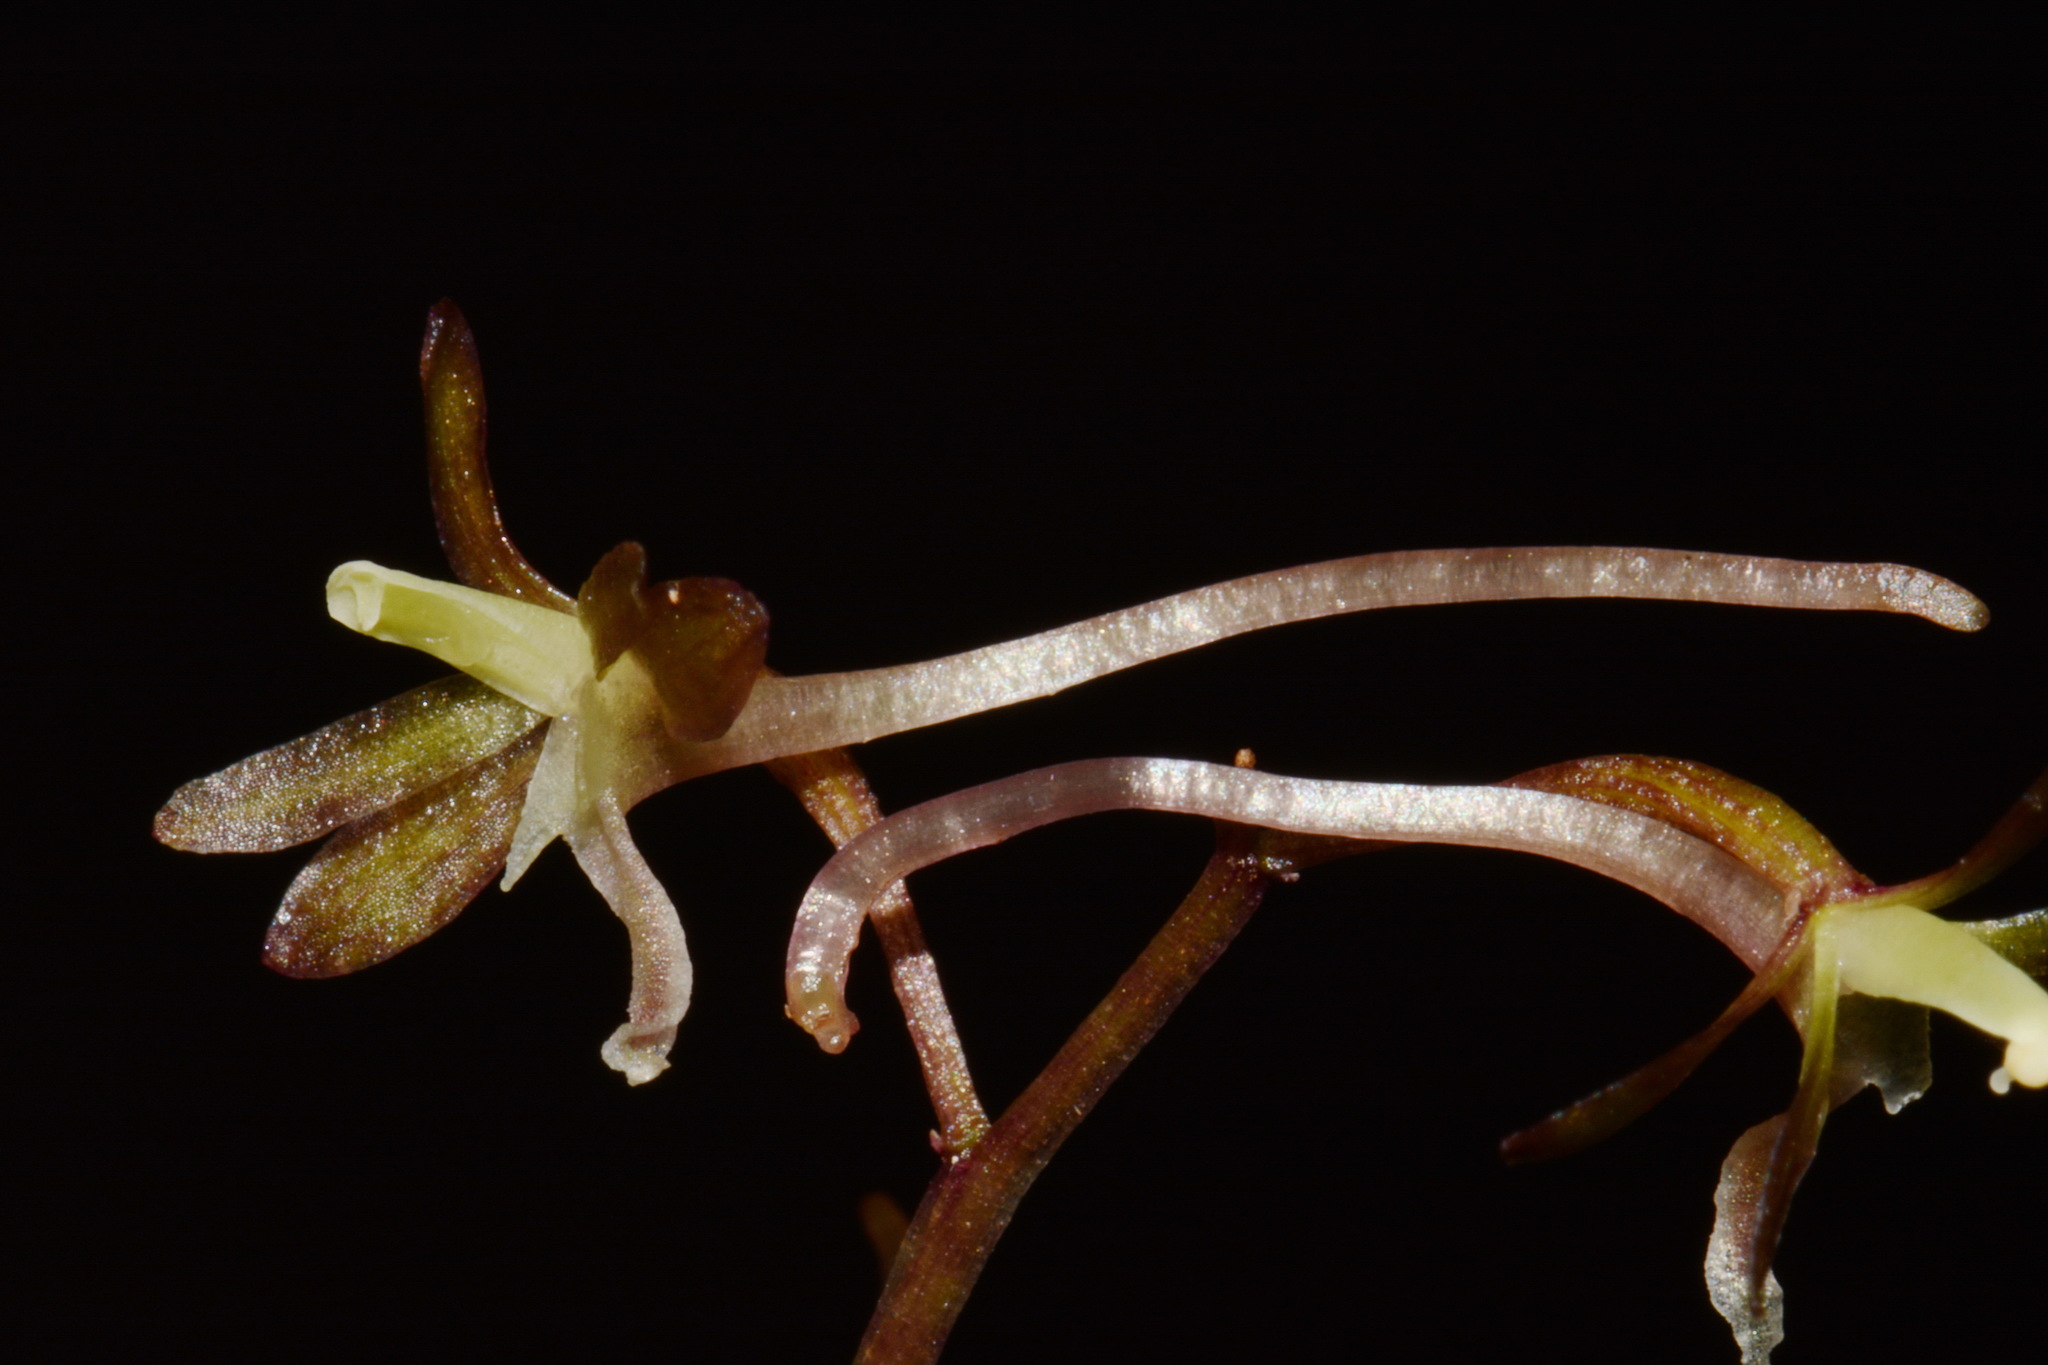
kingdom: Plantae
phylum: Tracheophyta
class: Liliopsida
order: Asparagales
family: Orchidaceae
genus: Tipularia
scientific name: Tipularia discolor
